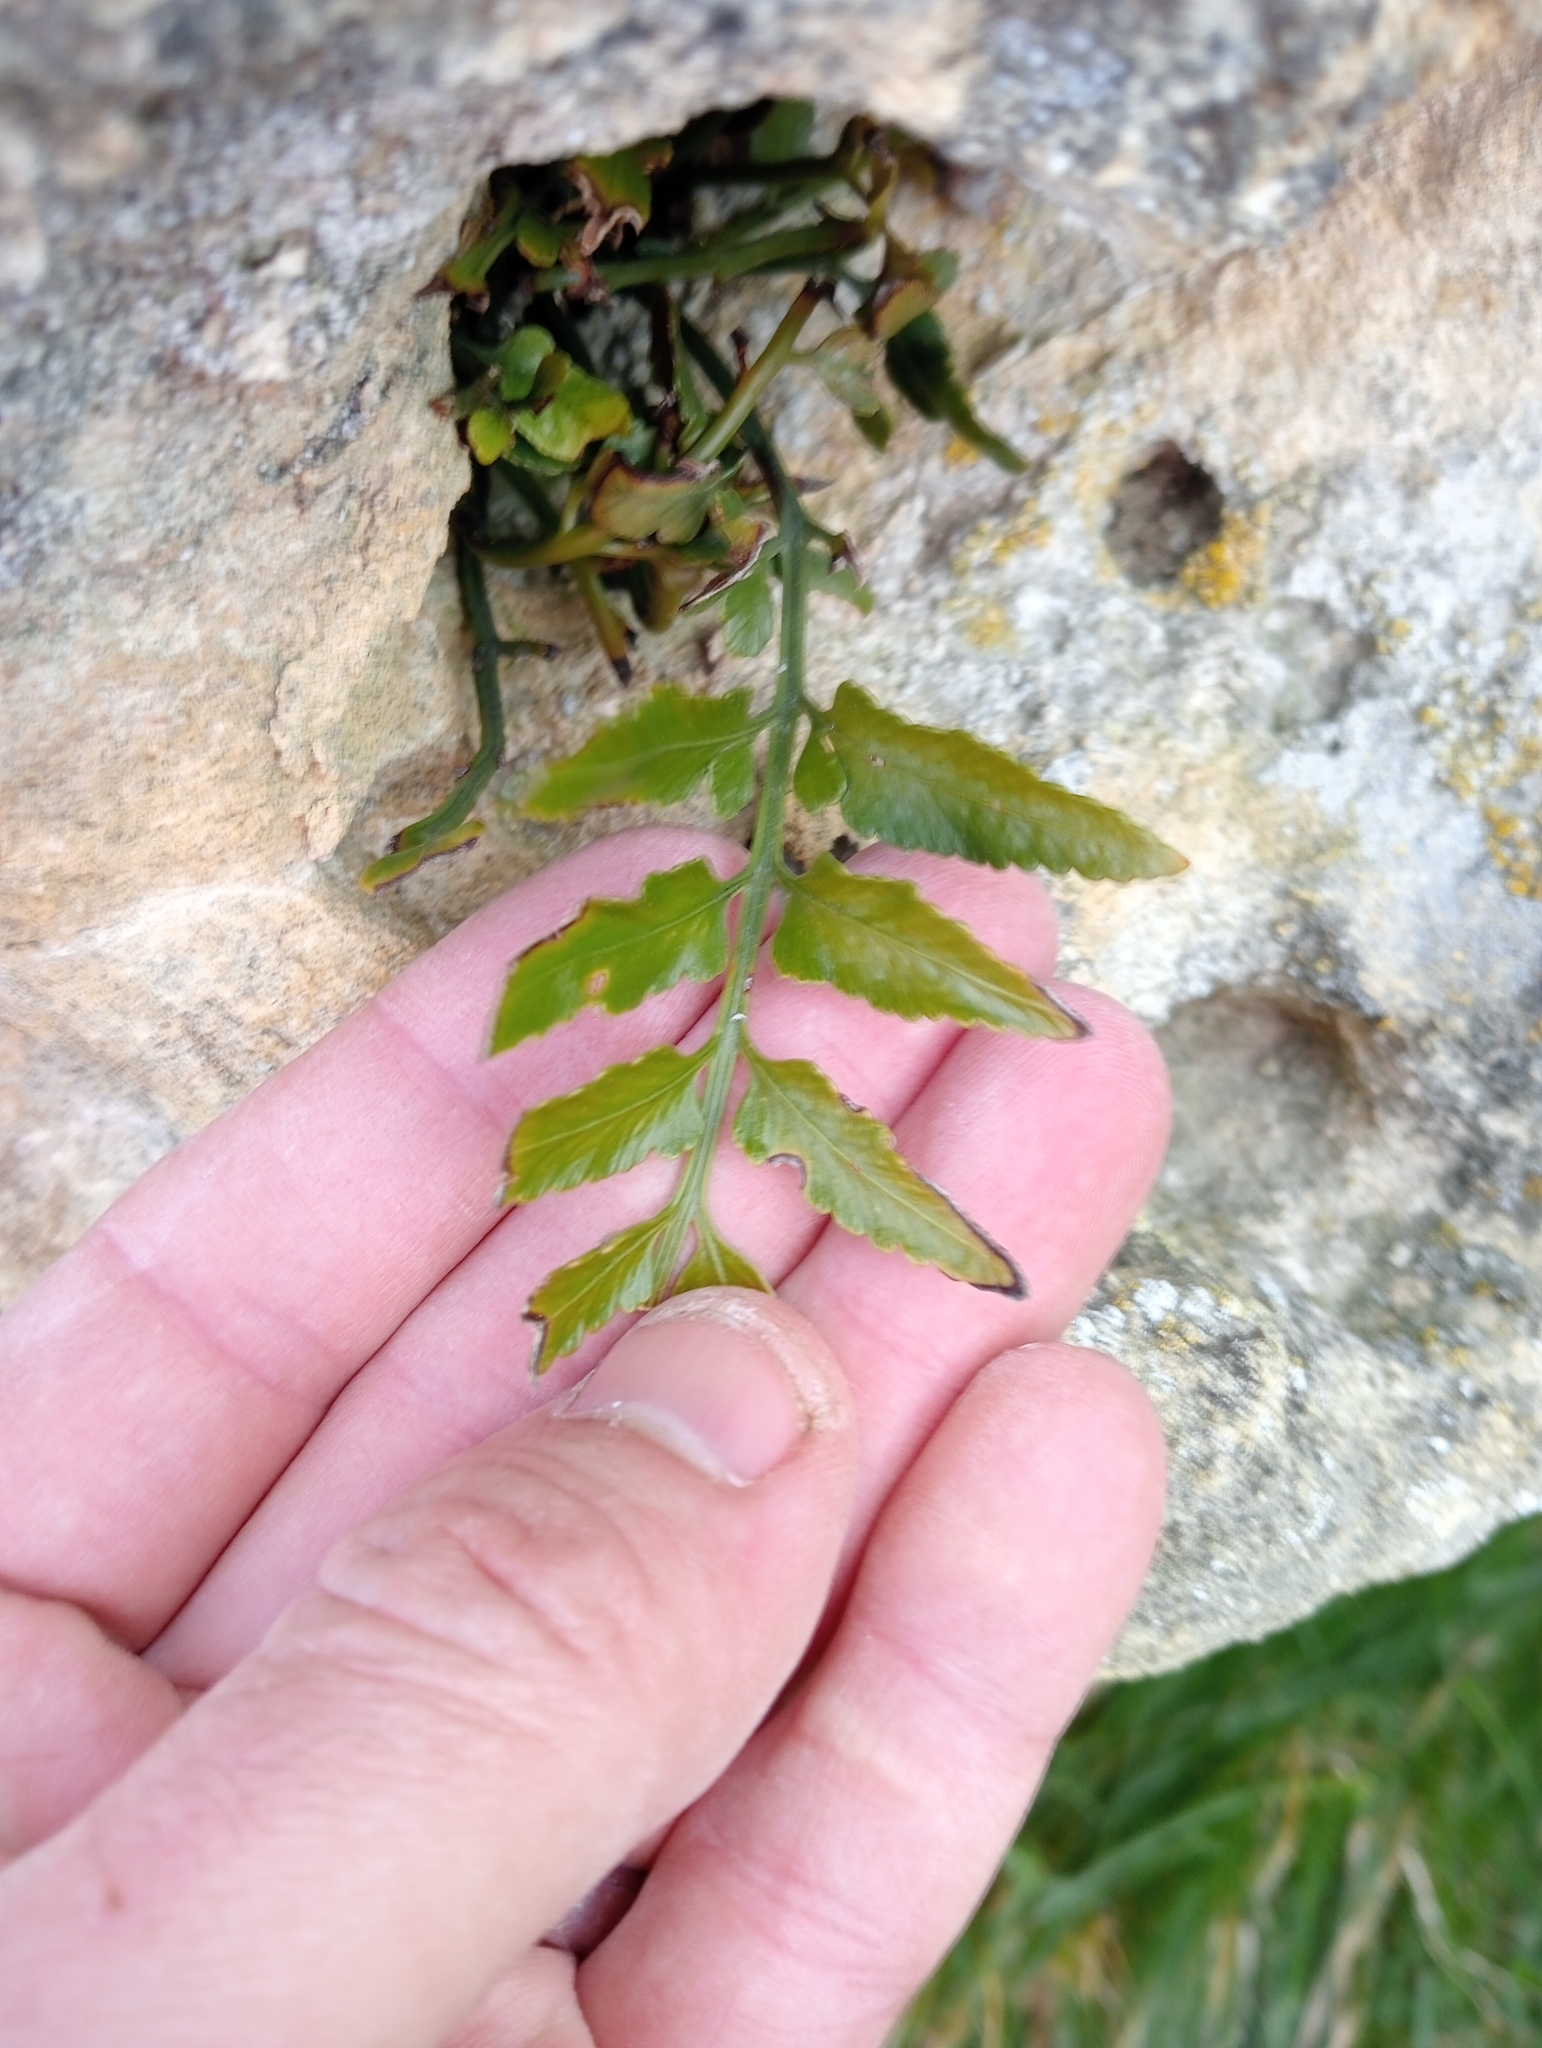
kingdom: Plantae
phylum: Tracheophyta
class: Polypodiopsida
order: Polypodiales
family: Aspleniaceae
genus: Asplenium
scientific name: Asplenium lyallii
